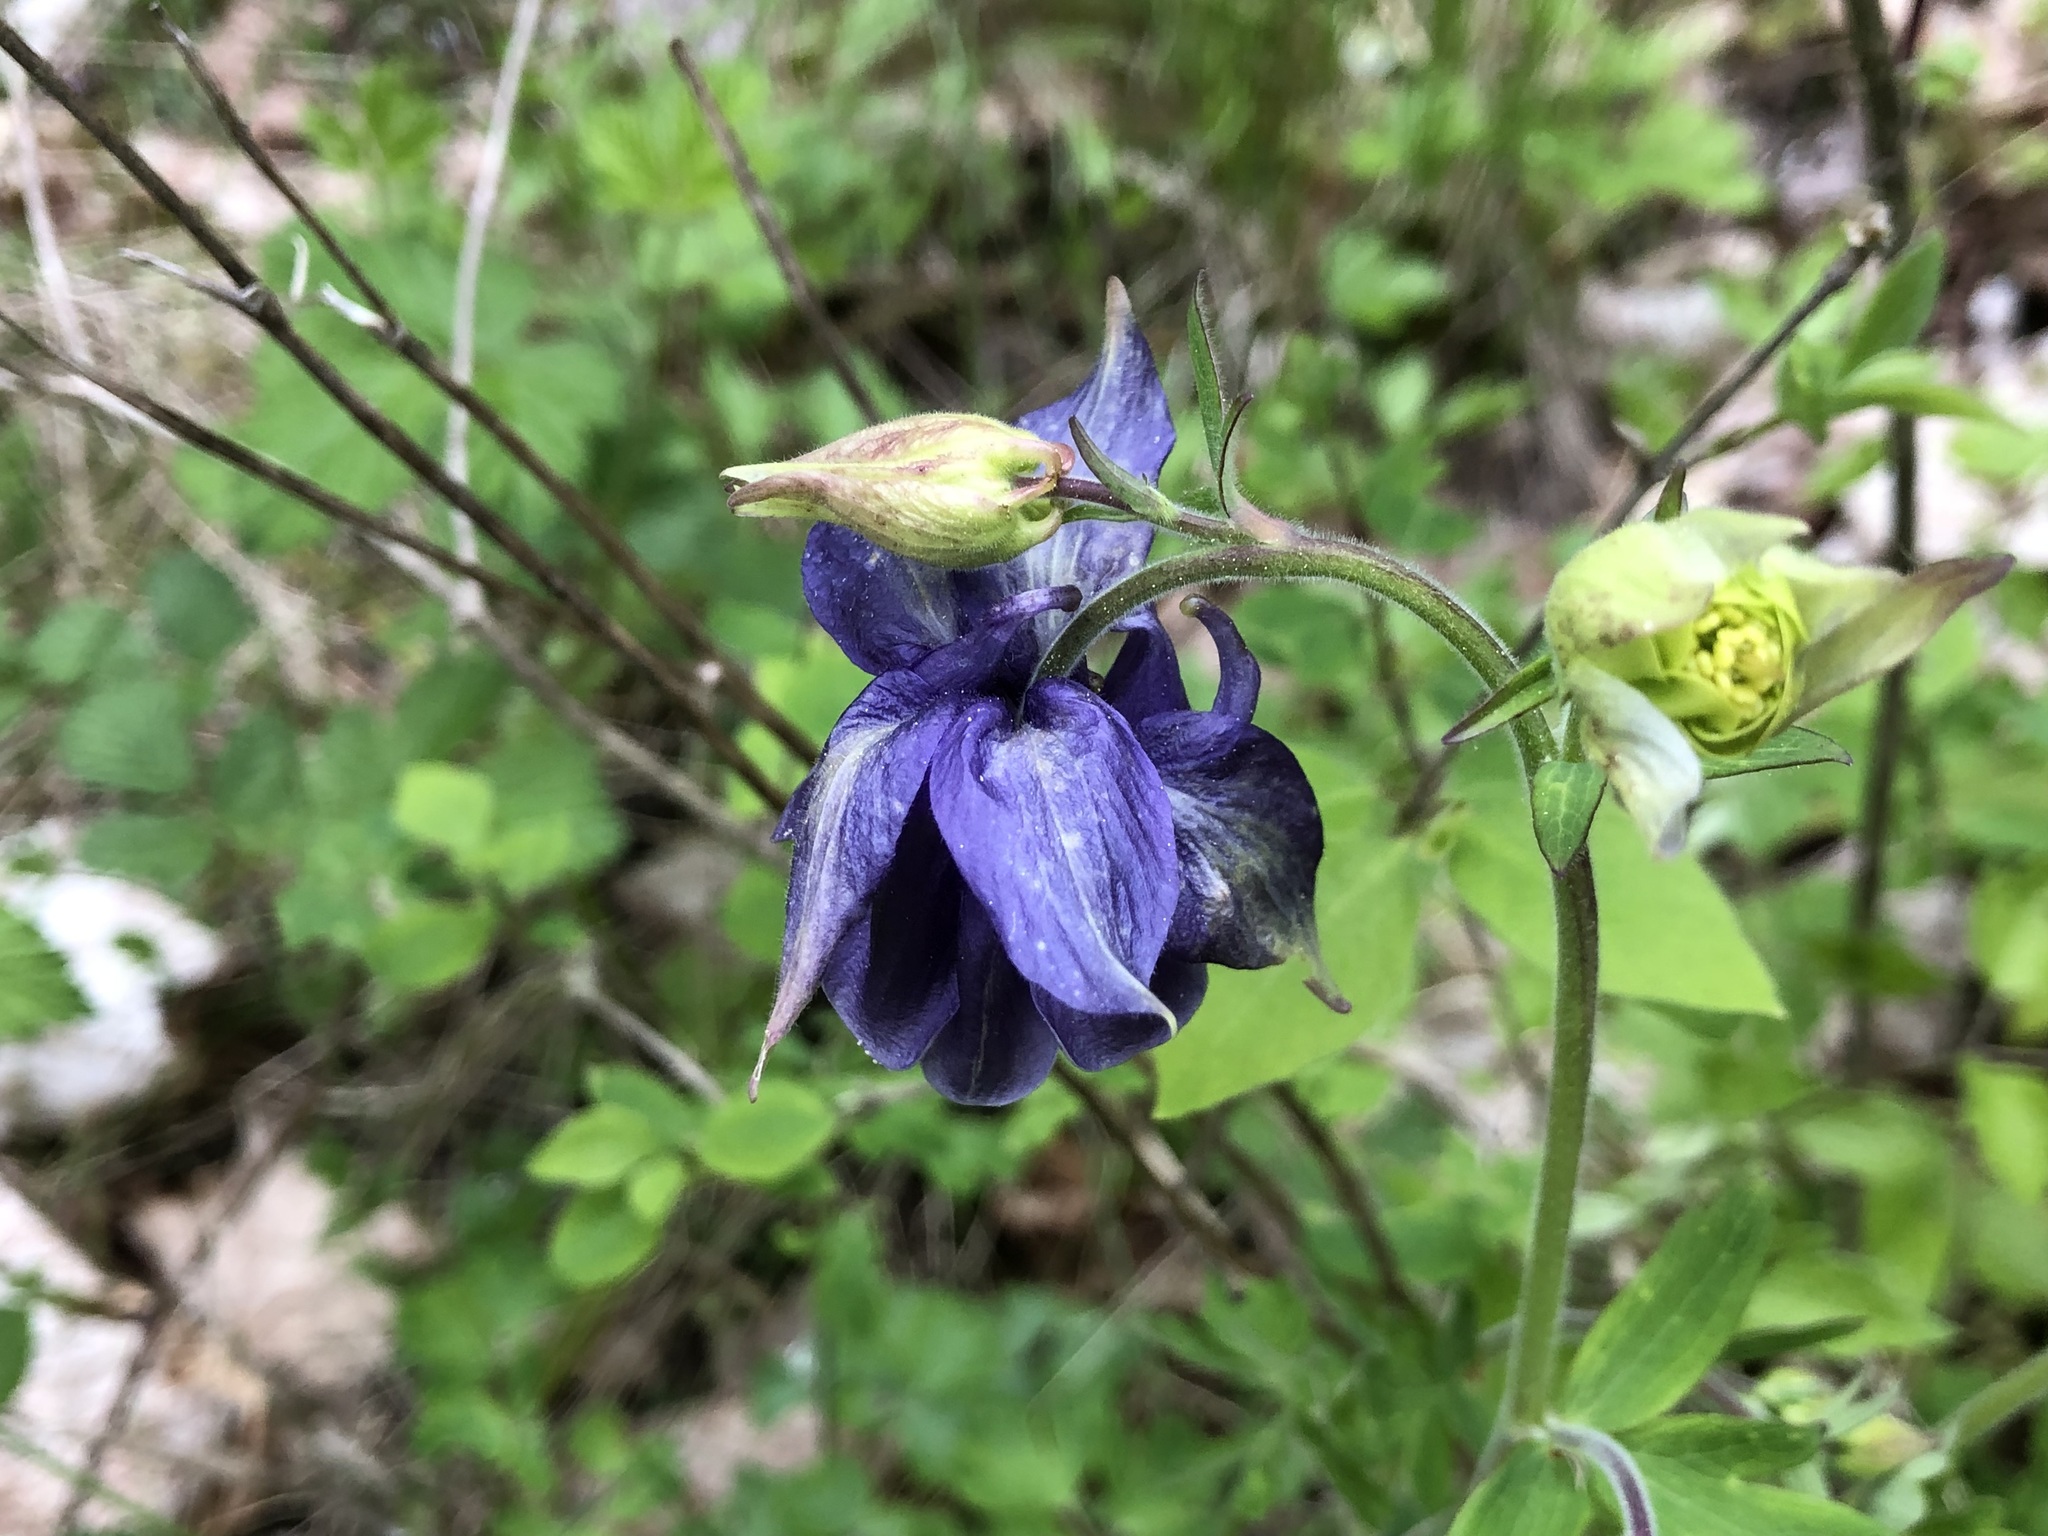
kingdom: Plantae
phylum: Tracheophyta
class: Magnoliopsida
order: Ranunculales
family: Ranunculaceae
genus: Aquilegia
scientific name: Aquilegia vulgaris
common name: Columbine
